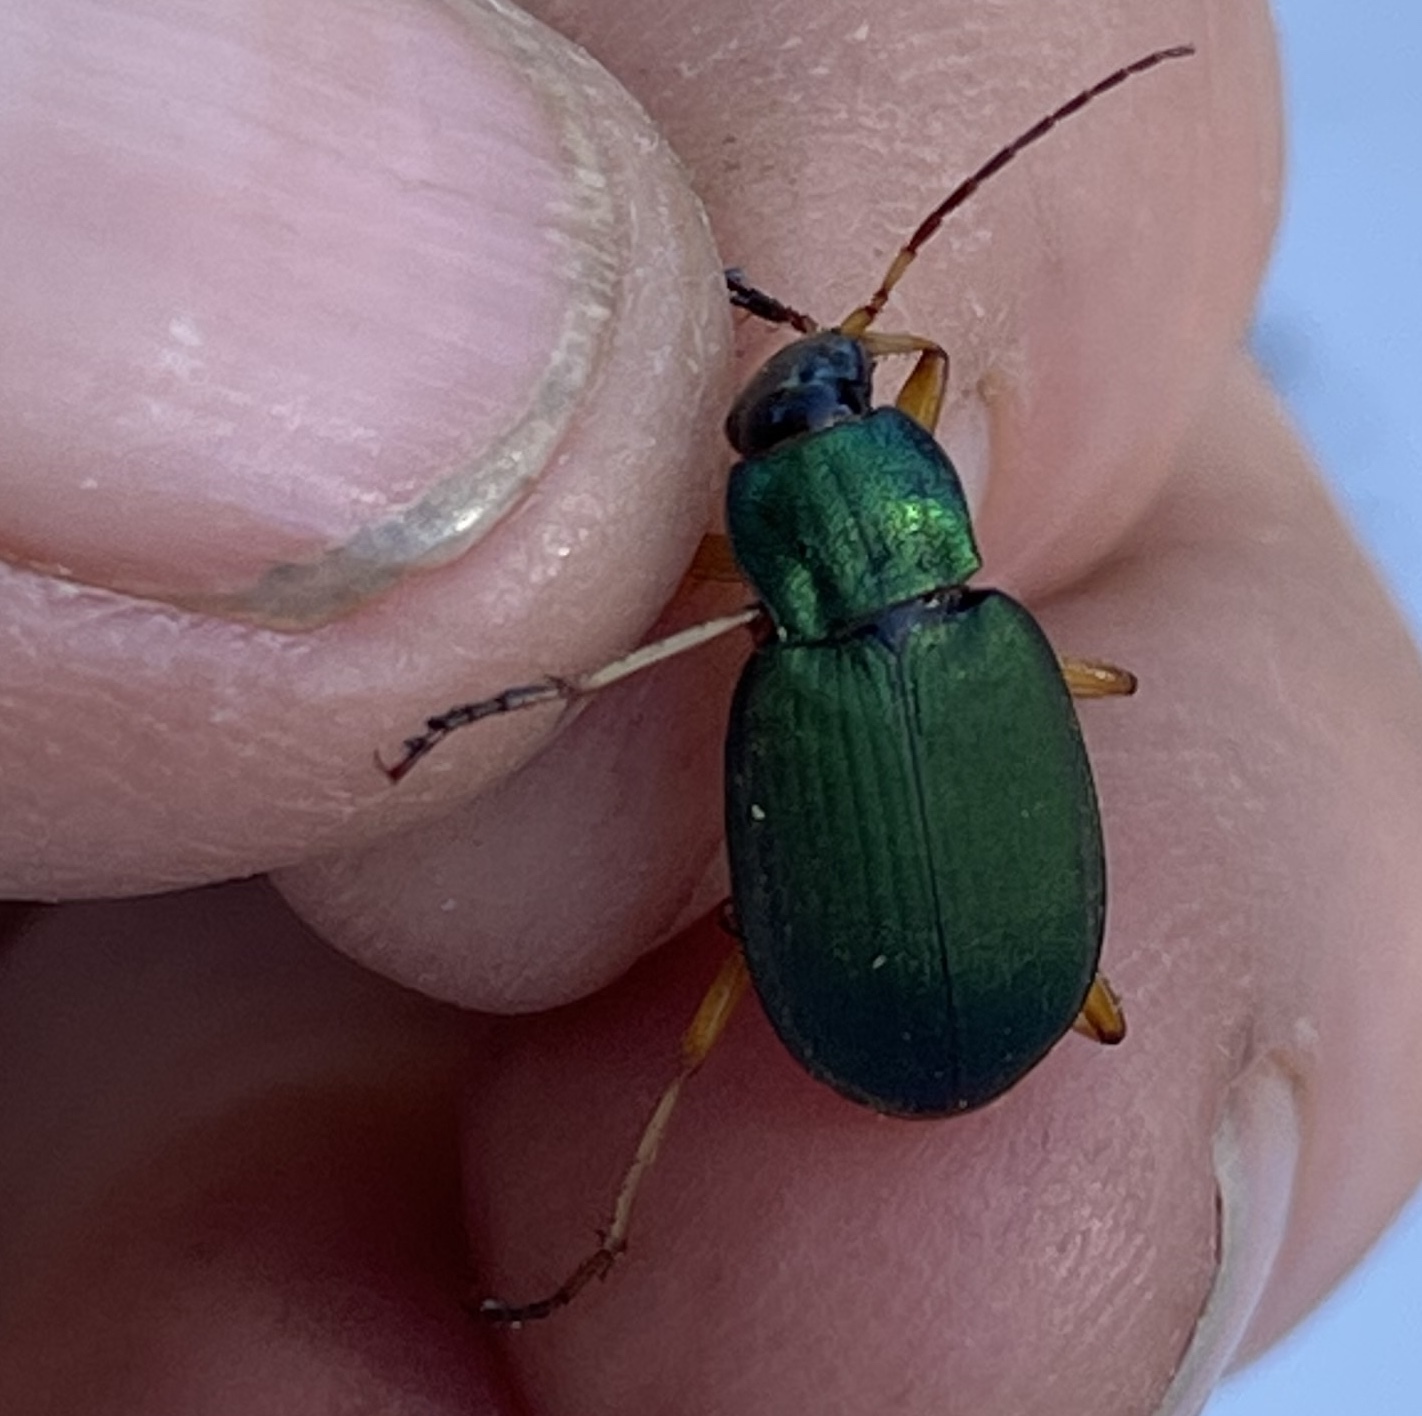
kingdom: Animalia
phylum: Arthropoda
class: Insecta
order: Coleoptera
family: Carabidae
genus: Chlaenius
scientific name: Chlaenius sericeus
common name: Green pubescent ground beetle
